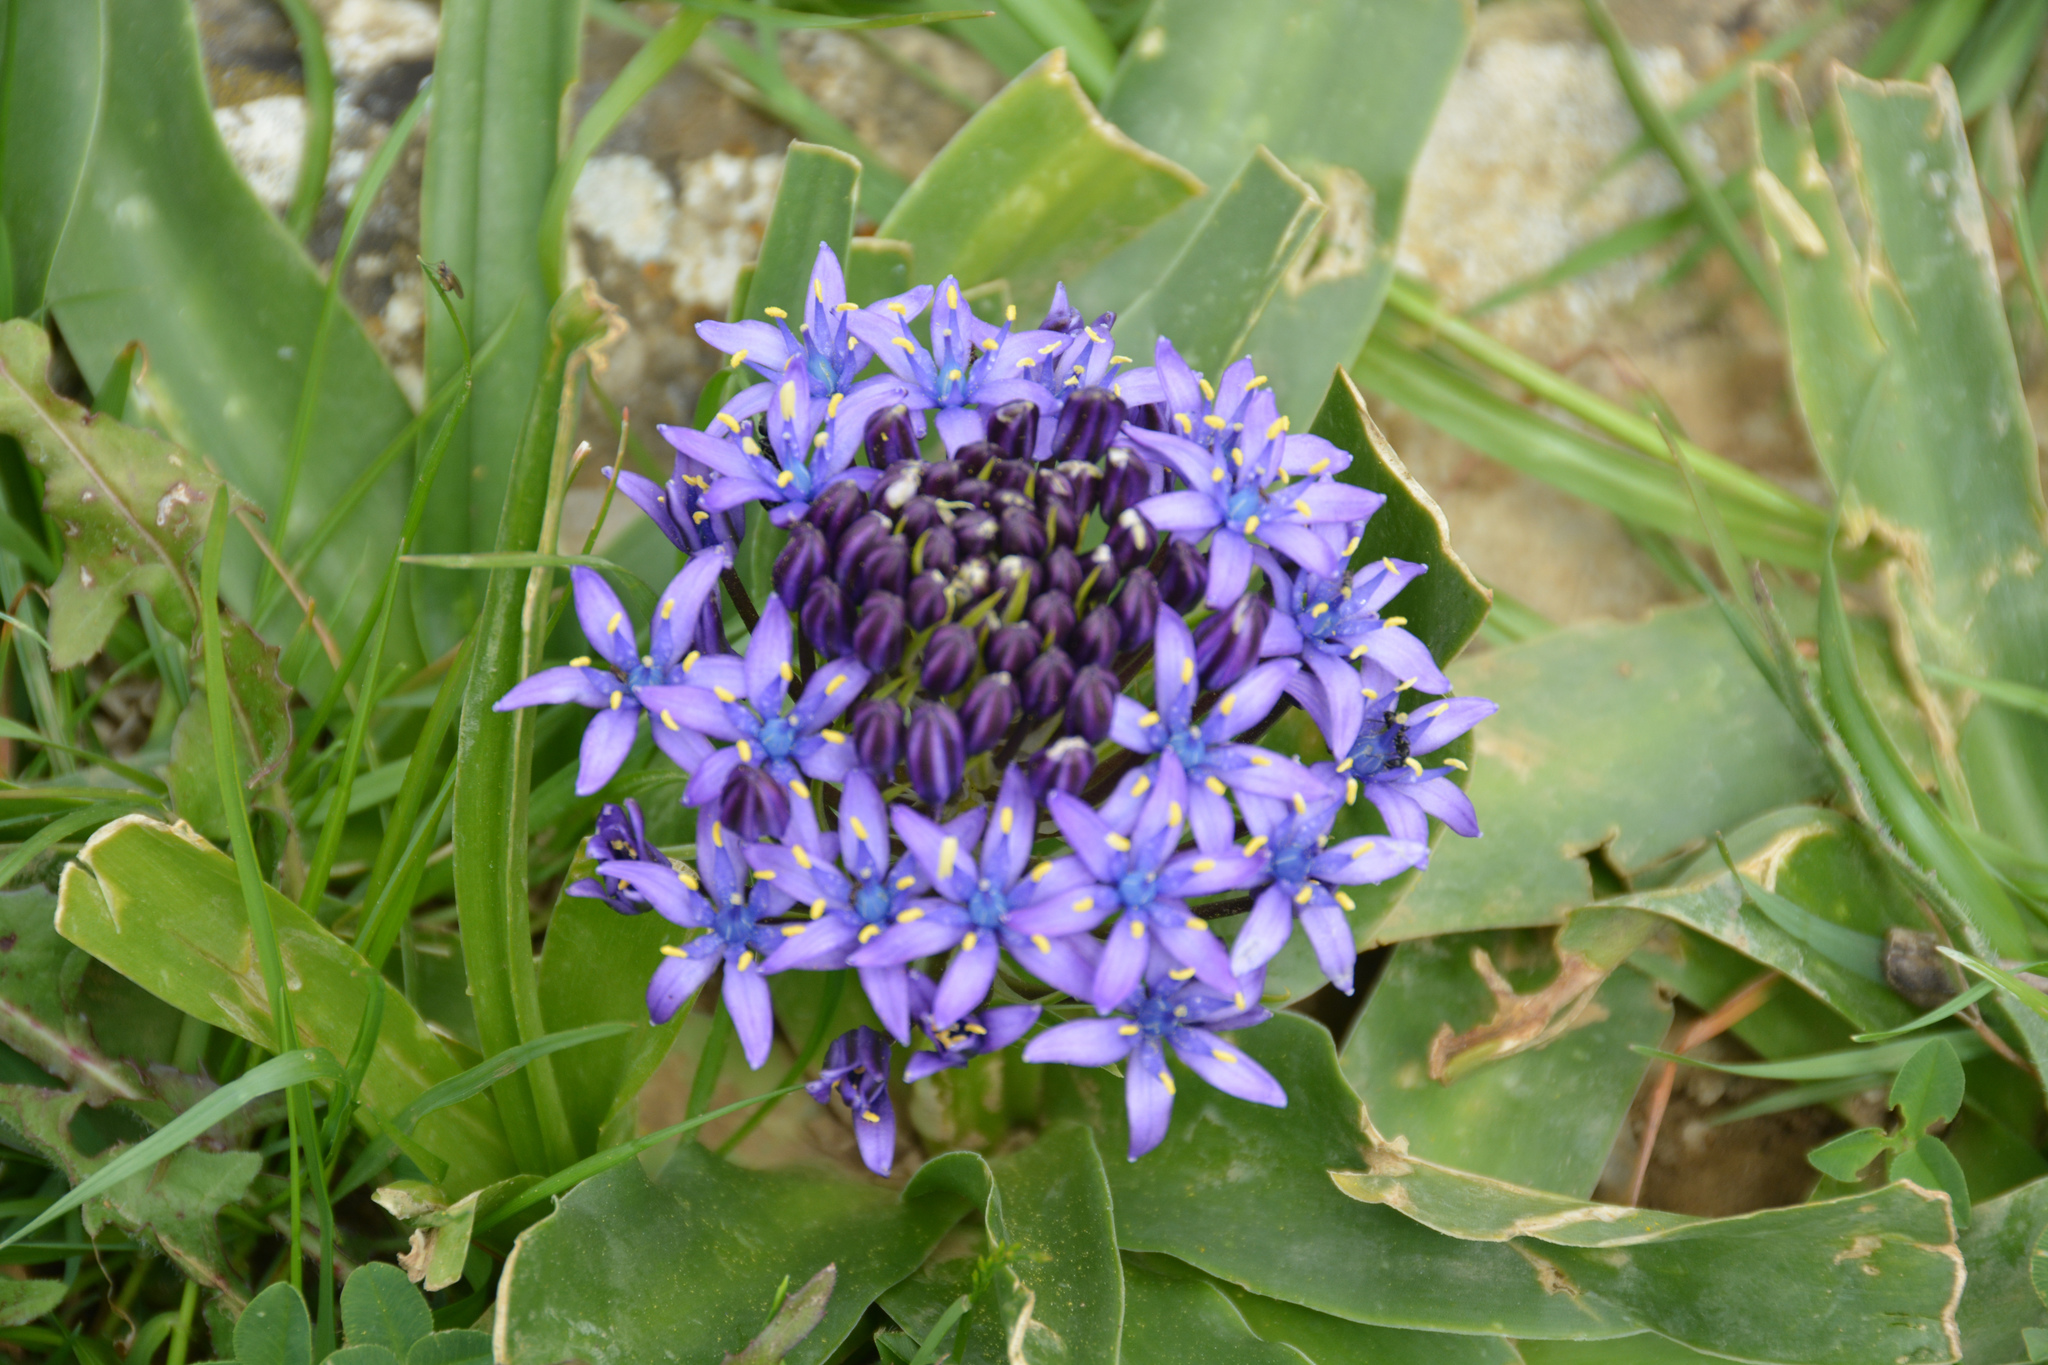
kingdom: Plantae
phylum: Tracheophyta
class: Liliopsida
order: Asparagales
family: Asparagaceae
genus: Scilla
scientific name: Scilla peruviana
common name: Portuguese squill
